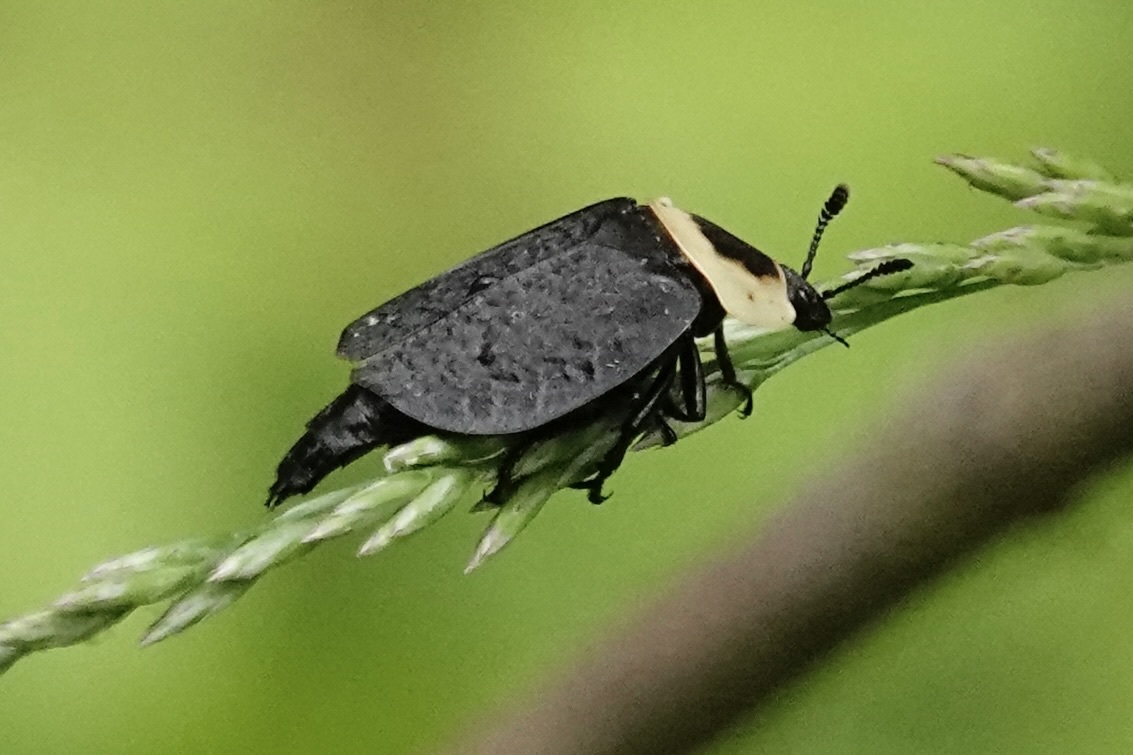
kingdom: Animalia
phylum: Arthropoda
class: Insecta
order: Coleoptera
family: Staphylinidae
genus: Necrophila
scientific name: Necrophila americana
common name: American carrion beetle
